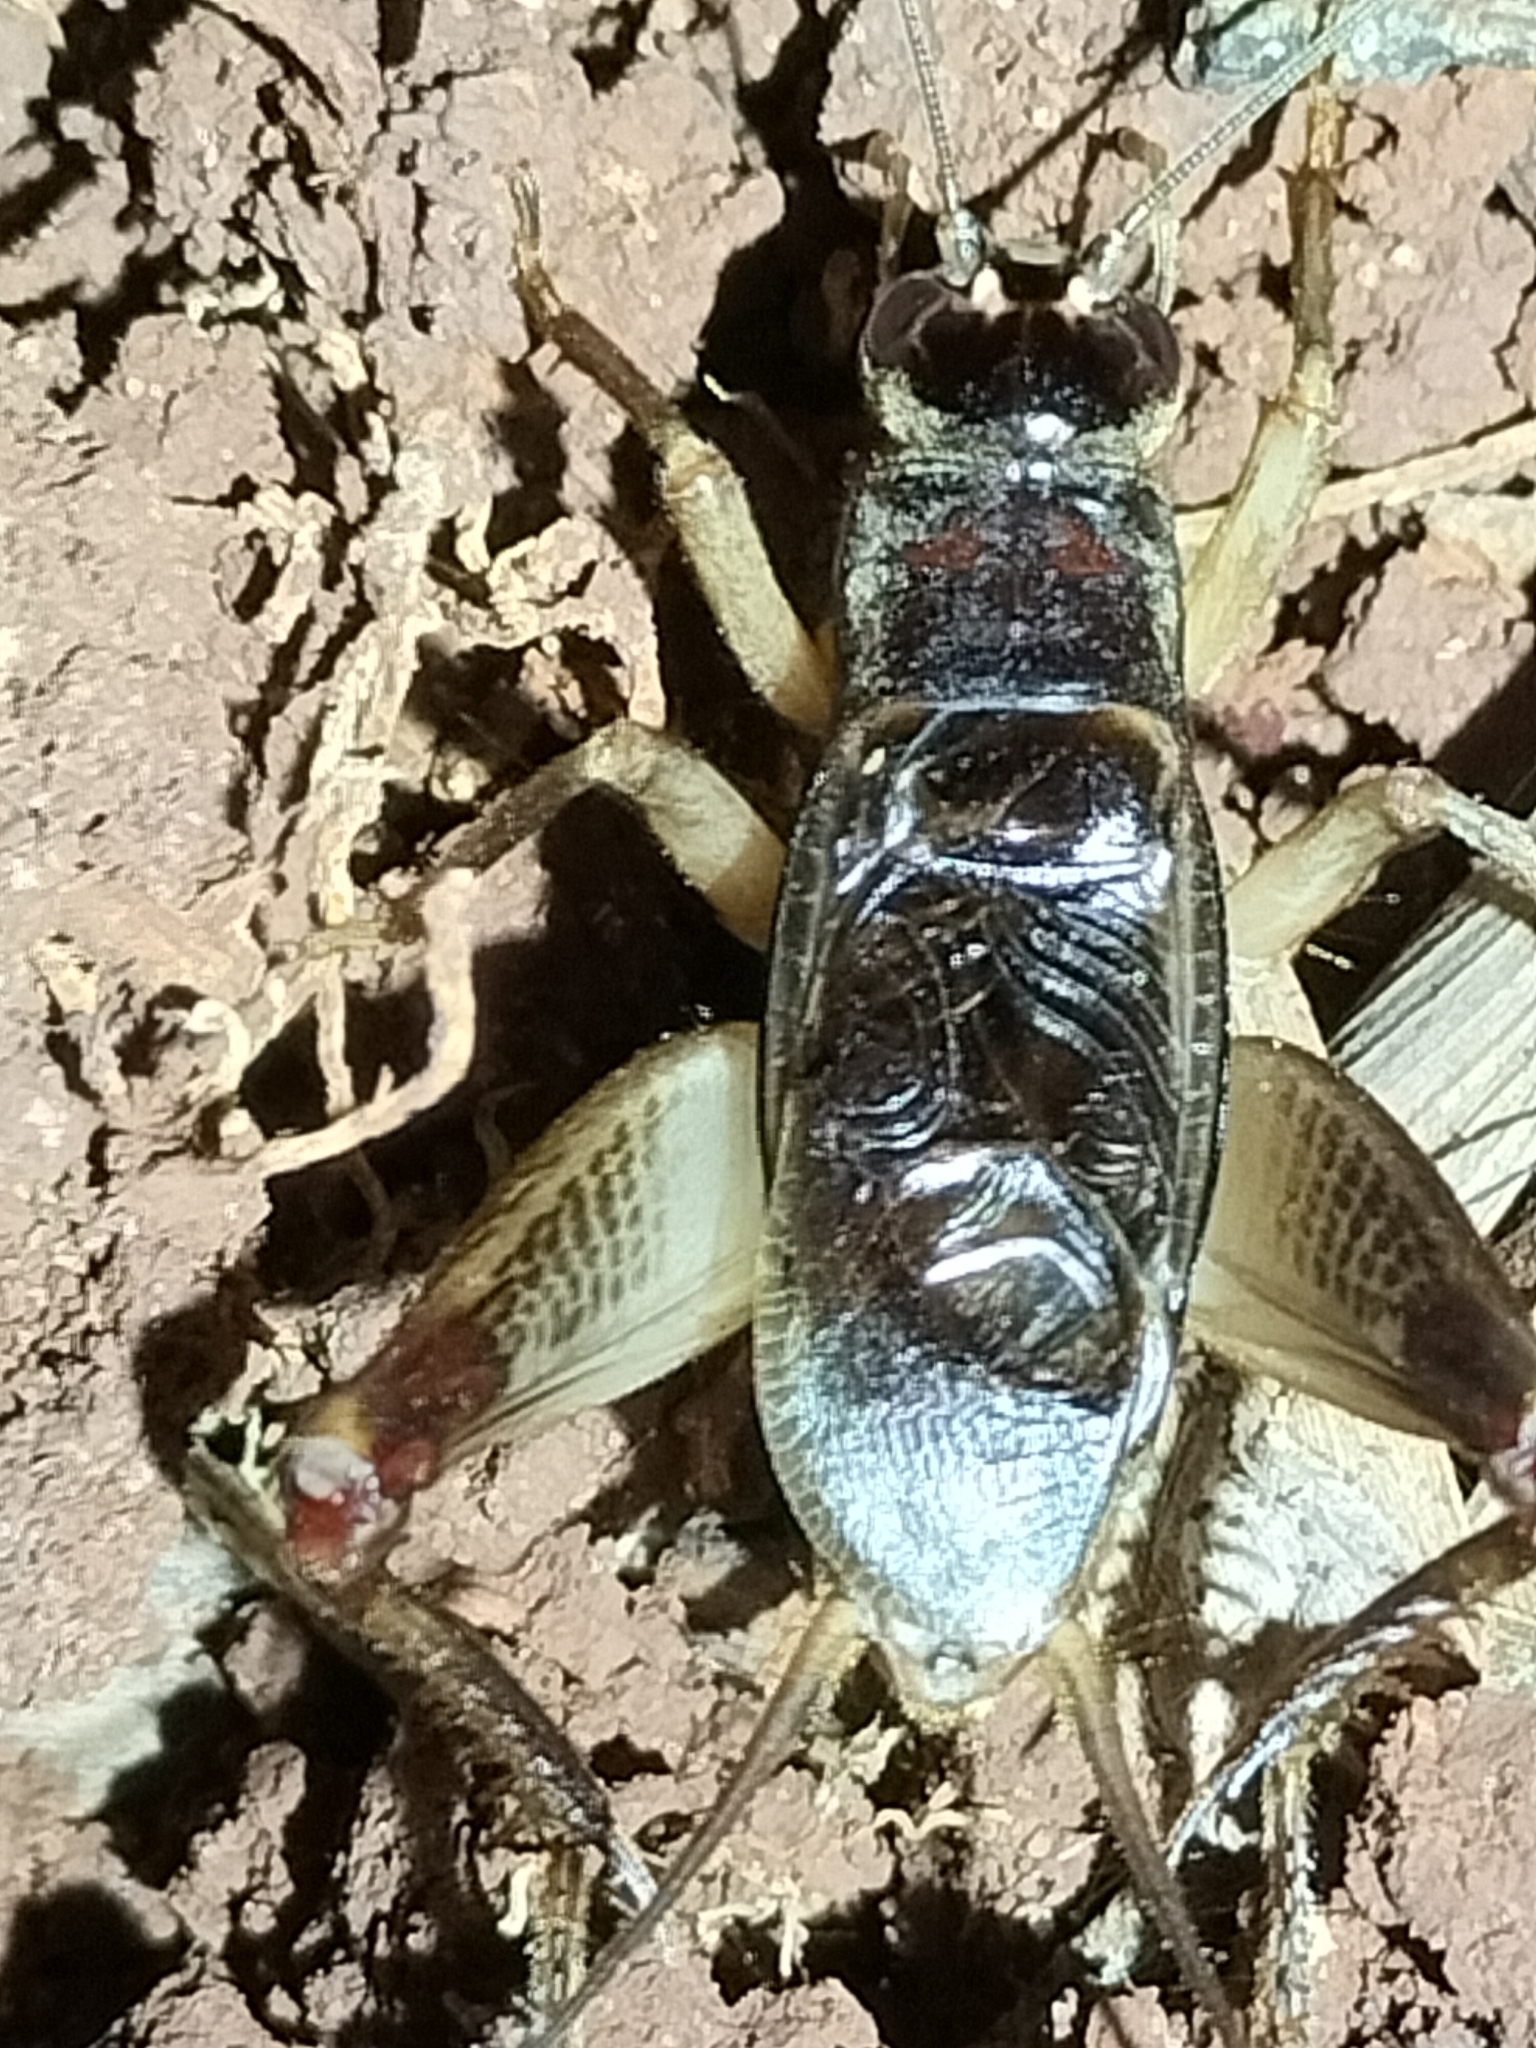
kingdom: Animalia
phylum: Arthropoda
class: Insecta
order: Orthoptera
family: Gryllidae
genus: Daintria
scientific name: Daintria aperensis
